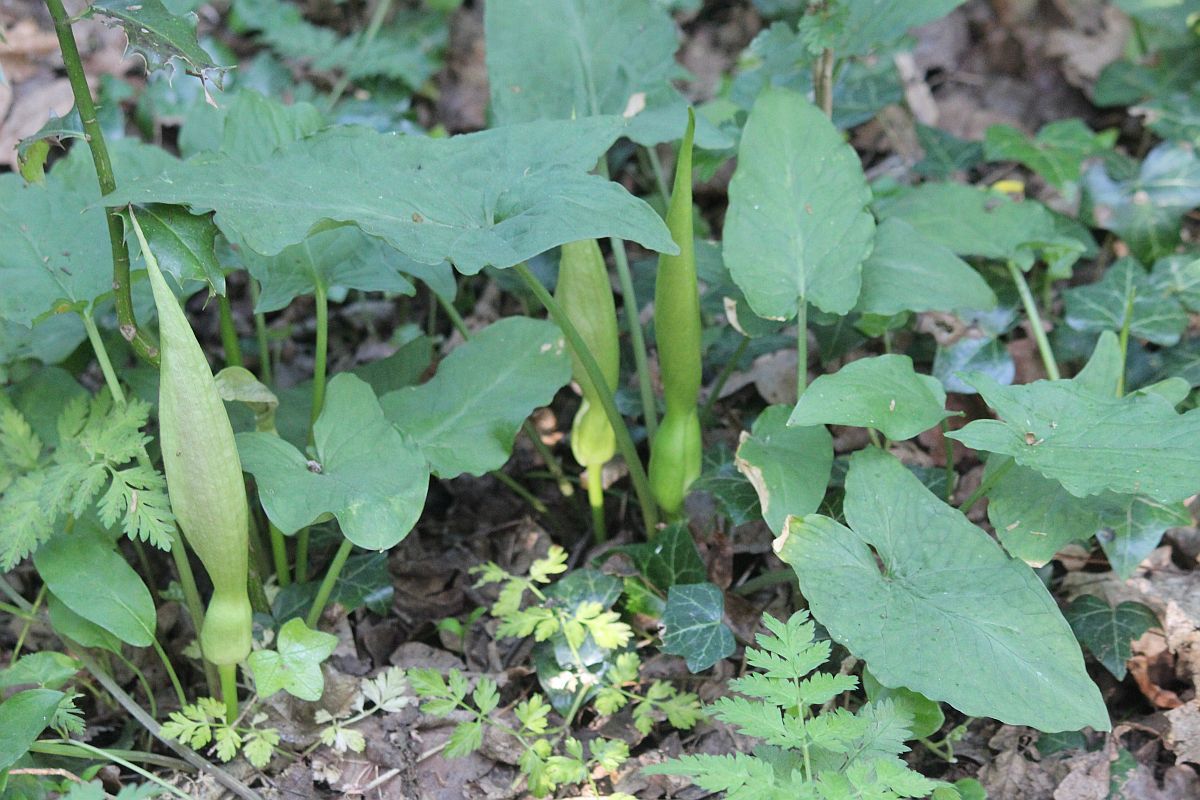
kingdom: Plantae
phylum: Tracheophyta
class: Liliopsida
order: Alismatales
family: Araceae
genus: Arum
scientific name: Arum maculatum
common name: Lords-and-ladies
